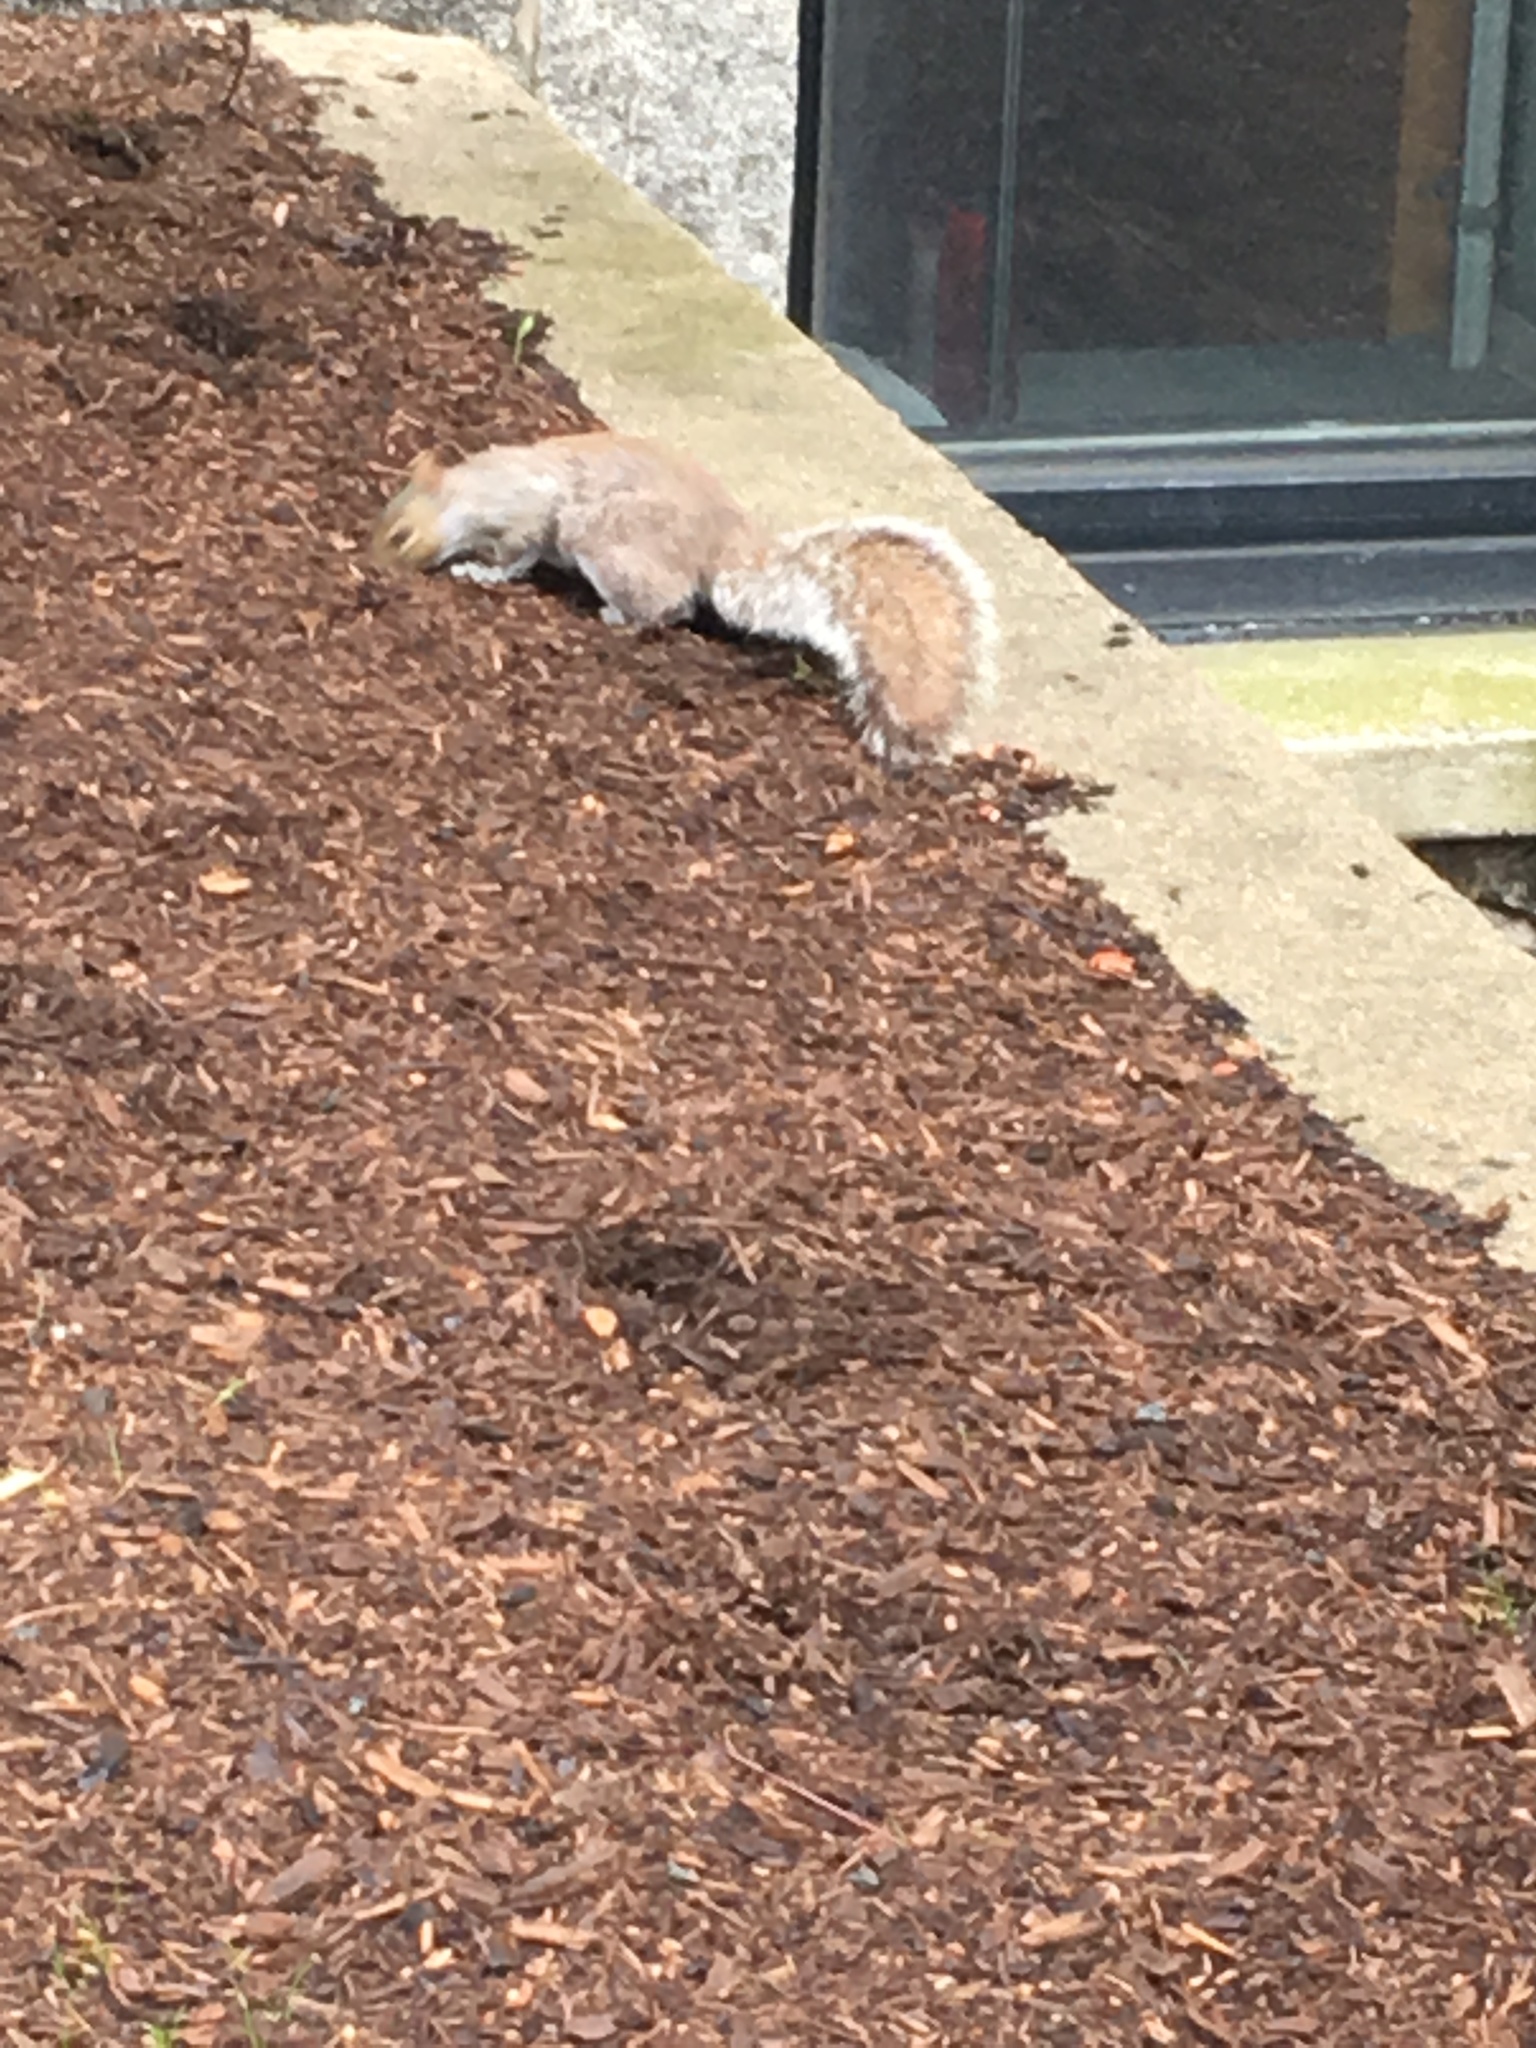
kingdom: Animalia
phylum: Chordata
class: Mammalia
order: Rodentia
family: Sciuridae
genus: Sciurus
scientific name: Sciurus carolinensis
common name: Eastern gray squirrel
